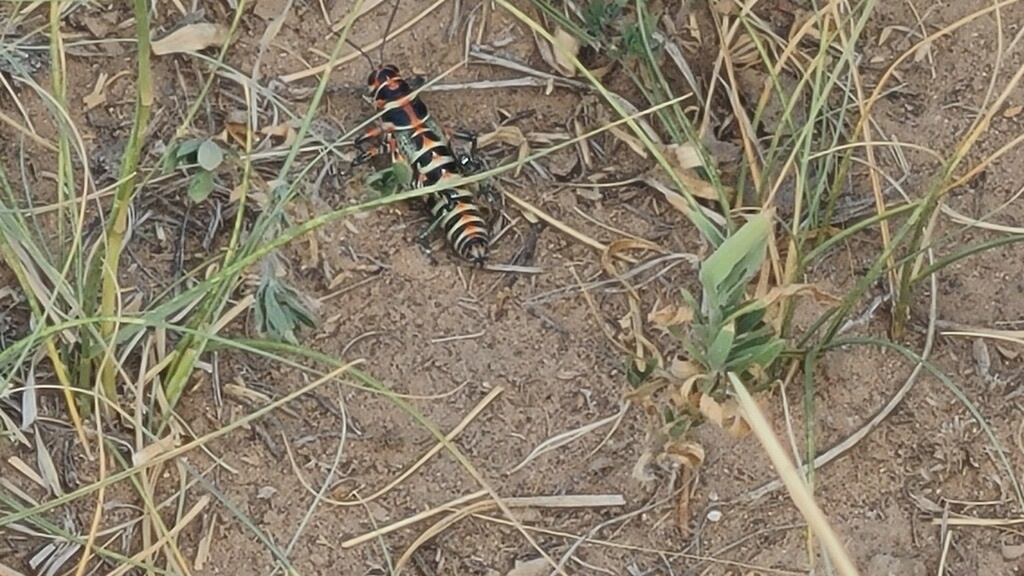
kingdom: Animalia
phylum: Arthropoda
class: Insecta
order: Orthoptera
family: Acrididae
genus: Dactylotum
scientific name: Dactylotum bicolor
